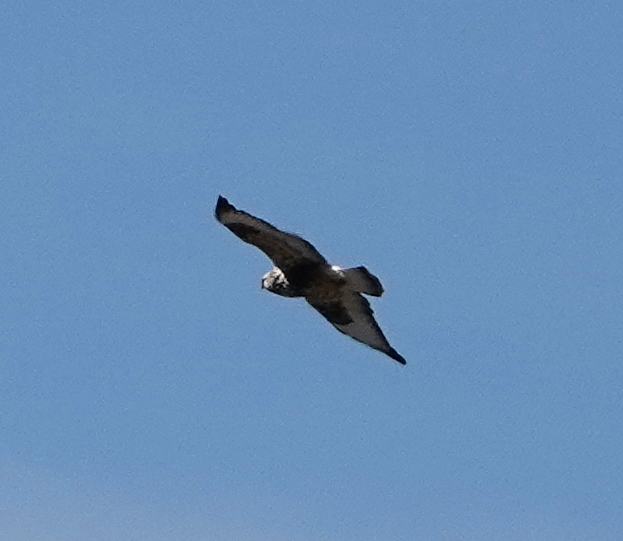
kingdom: Animalia
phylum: Chordata
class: Aves
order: Accipitriformes
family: Accipitridae
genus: Buteo
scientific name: Buteo lagopus
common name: Rough-legged buzzard
